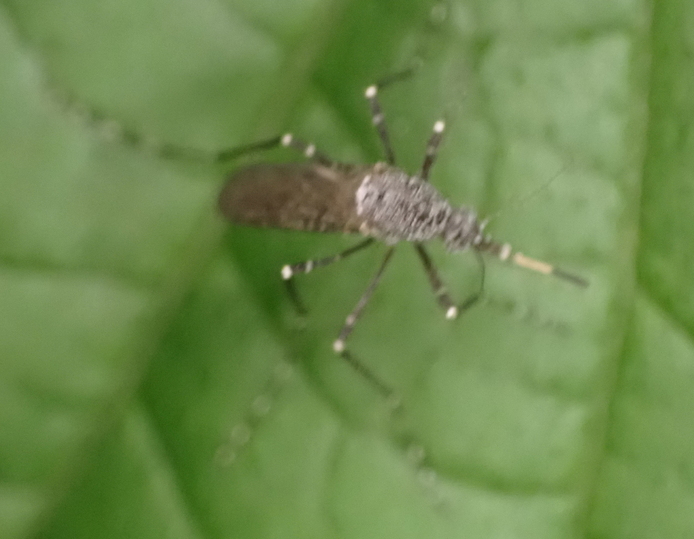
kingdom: Animalia
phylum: Arthropoda
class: Insecta
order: Diptera
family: Culicidae
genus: Psorophora
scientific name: Psorophora columbiae
